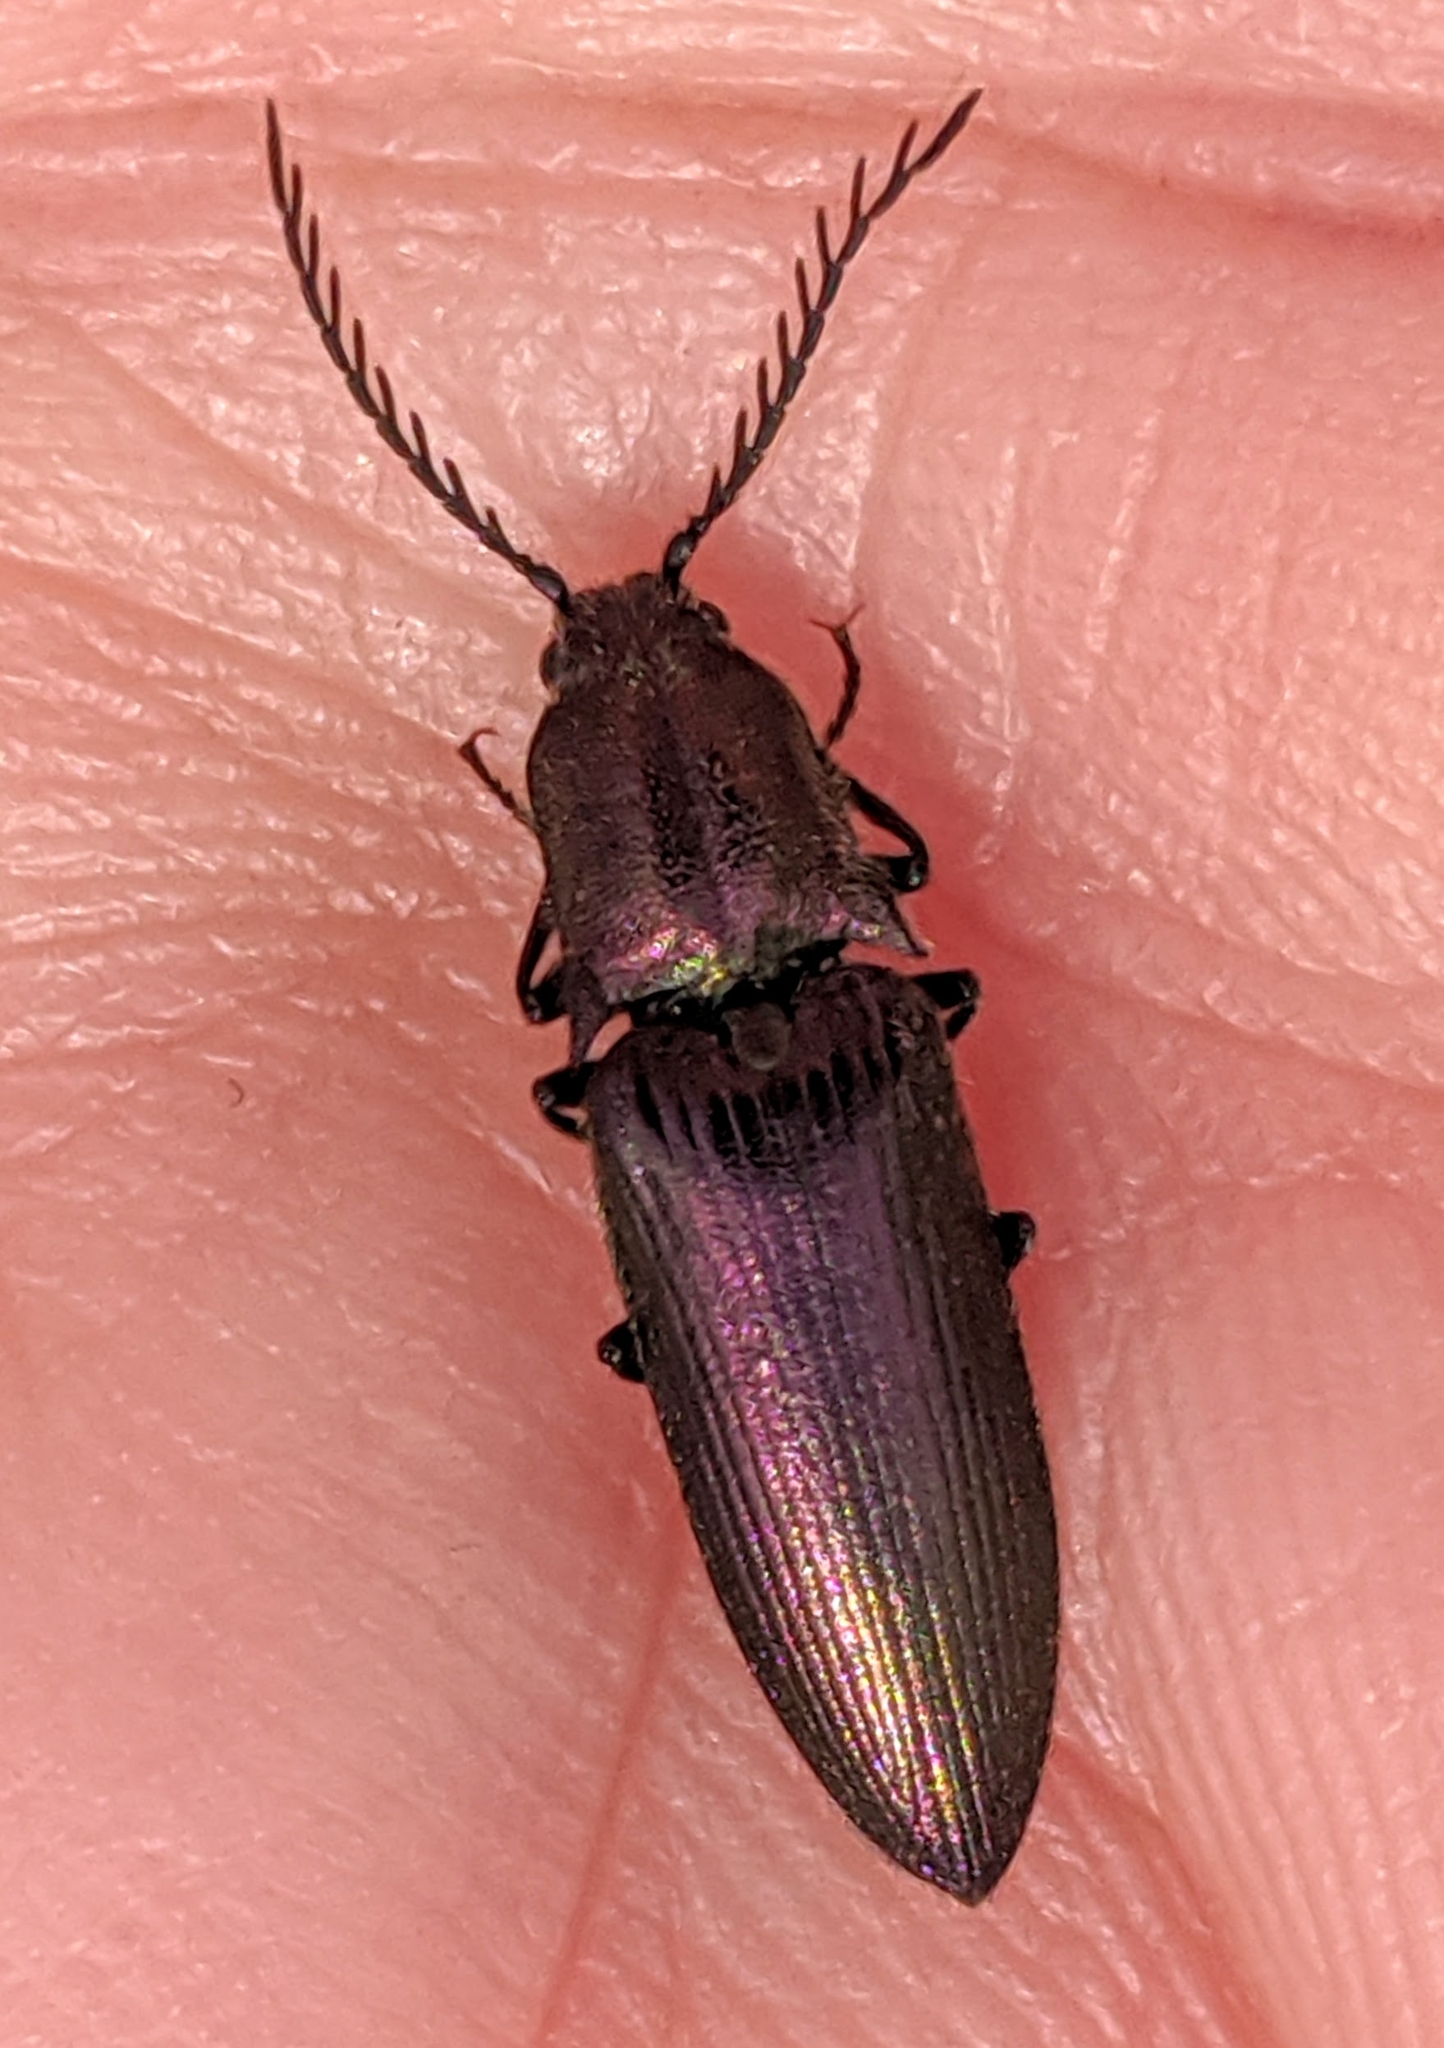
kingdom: Animalia
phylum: Arthropoda
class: Insecta
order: Coleoptera
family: Elateridae
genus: Ctenicera
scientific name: Ctenicera cuprea
